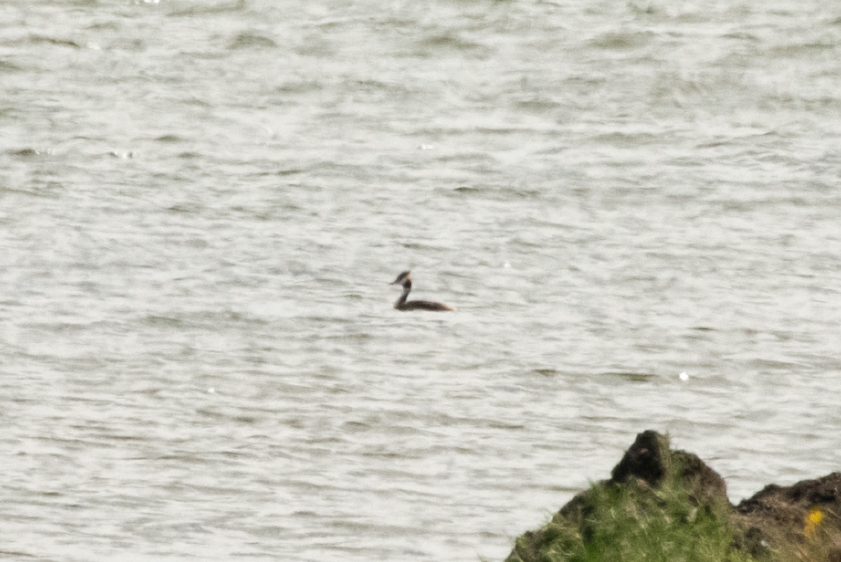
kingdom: Animalia
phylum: Chordata
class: Aves
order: Podicipediformes
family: Podicipedidae
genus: Podiceps
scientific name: Podiceps cristatus
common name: Great crested grebe
